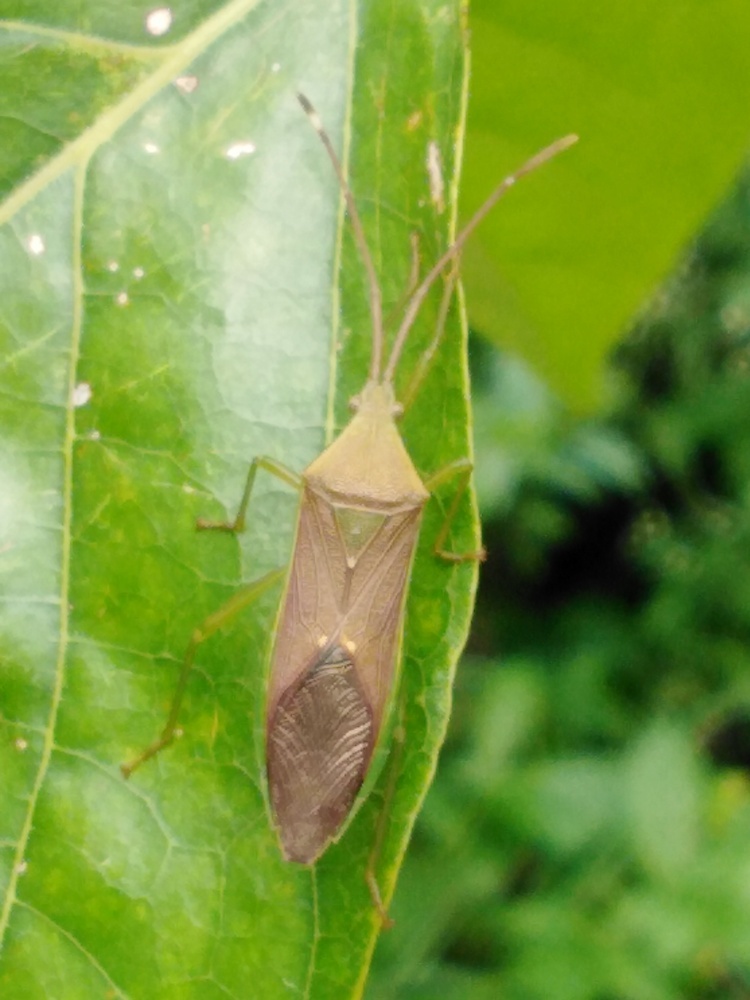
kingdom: Animalia
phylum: Arthropoda
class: Insecta
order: Hemiptera
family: Coreidae
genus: Homoeocerus
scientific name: Homoeocerus relatus
